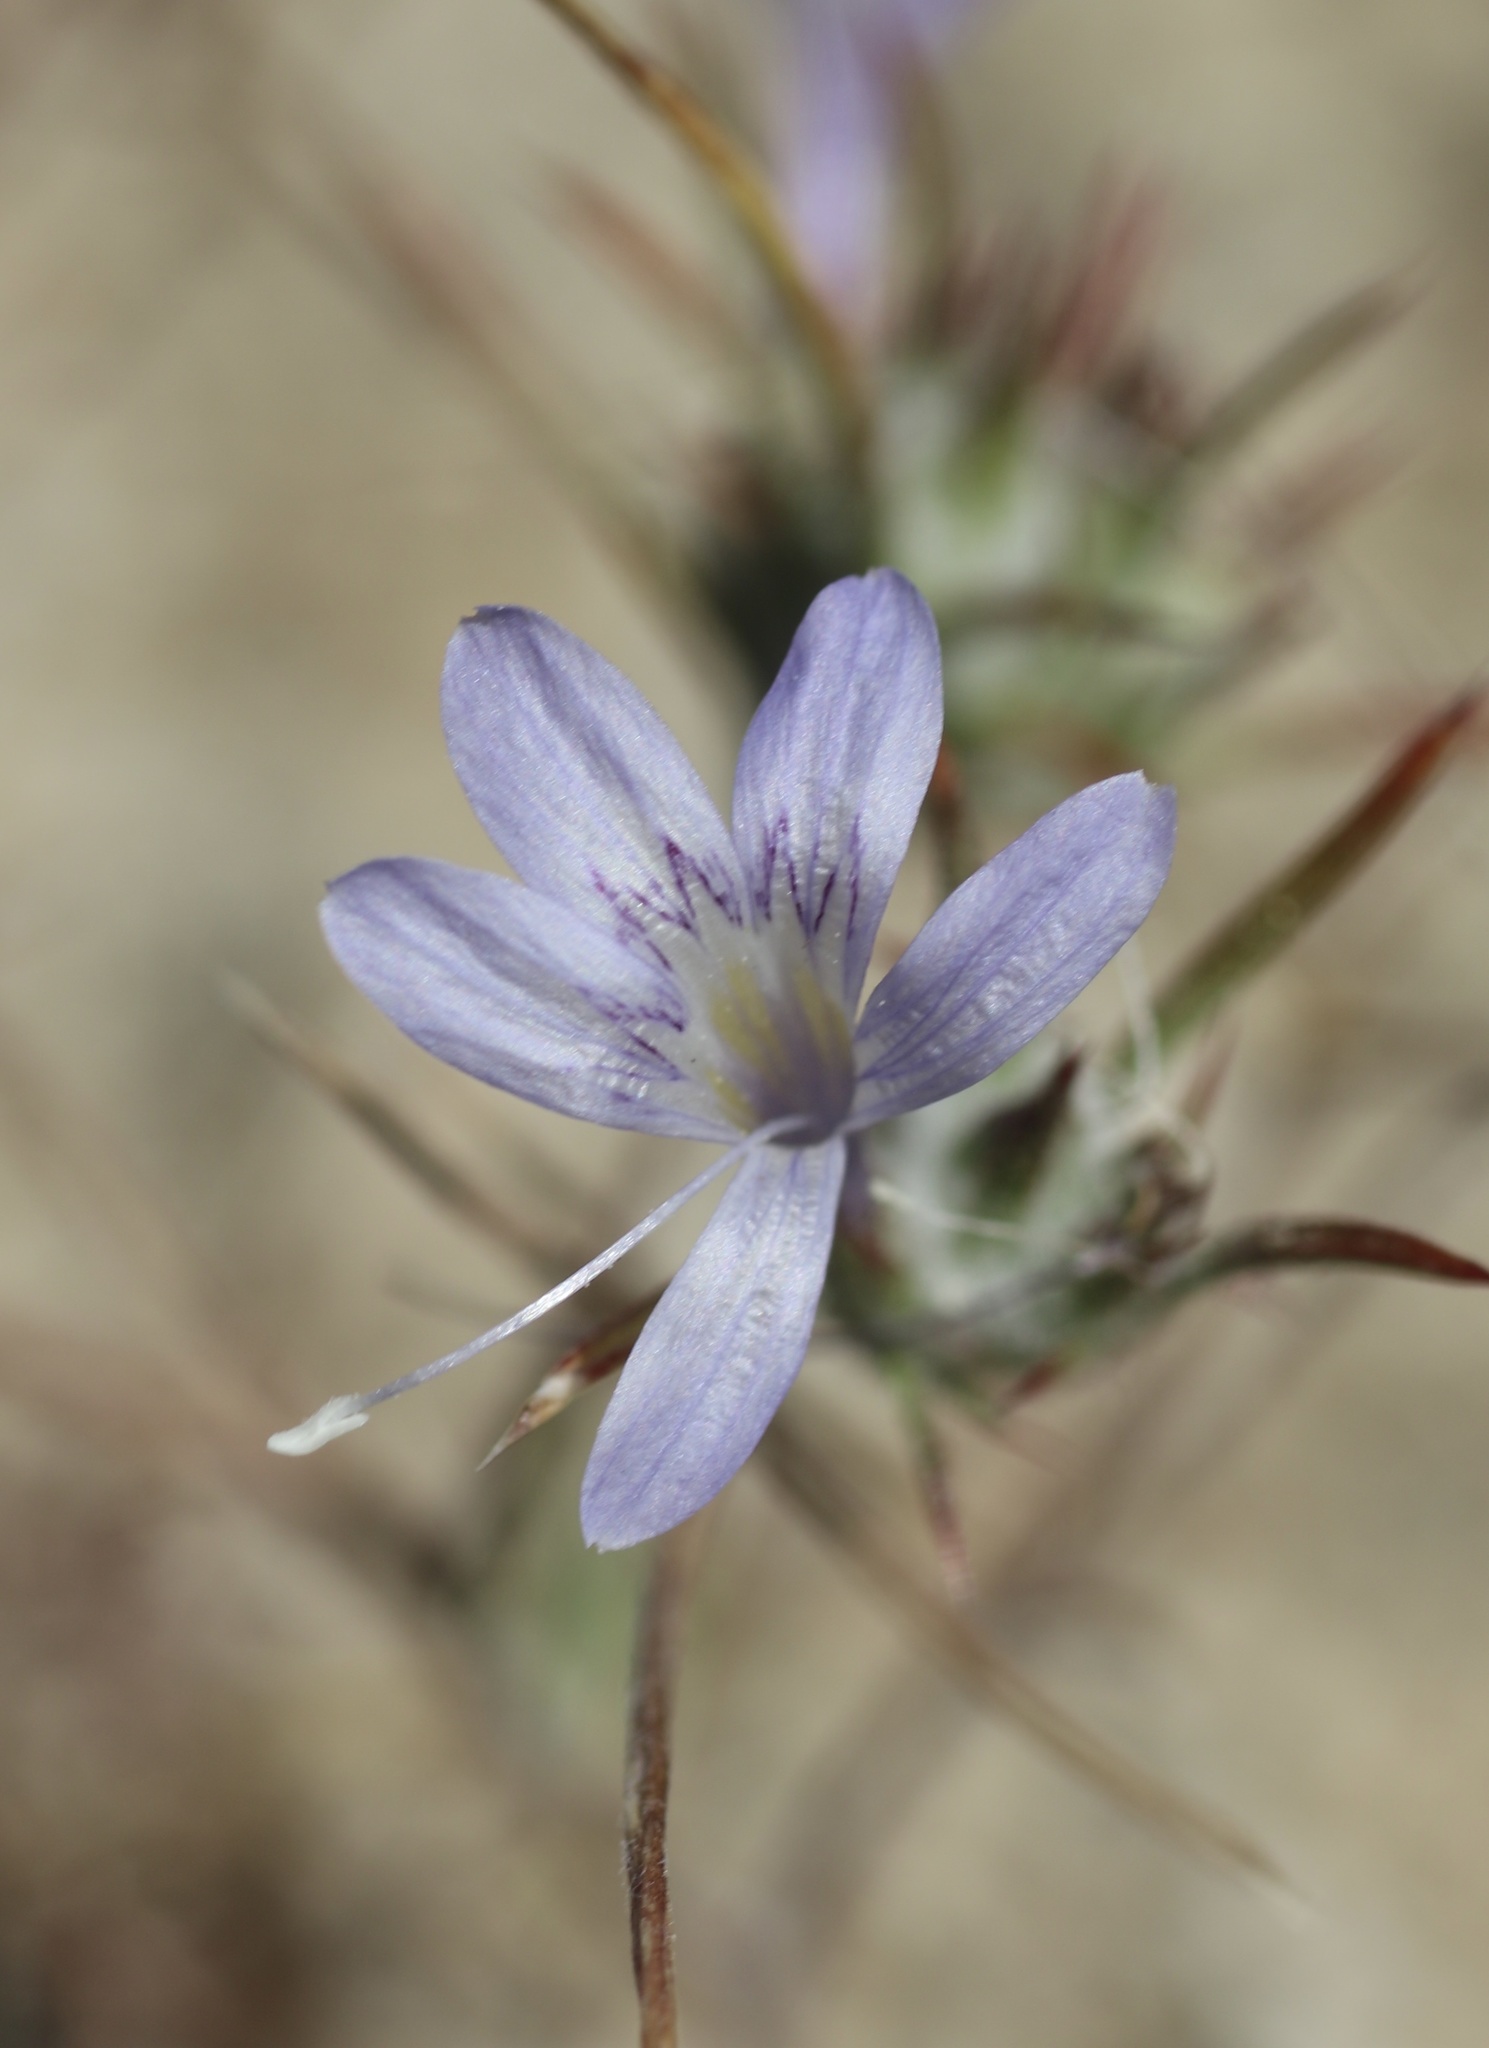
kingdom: Plantae
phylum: Tracheophyta
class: Magnoliopsida
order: Ericales
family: Polemoniaceae
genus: Eriastrum
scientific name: Eriastrum eremicum
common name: Desert eriastrum
